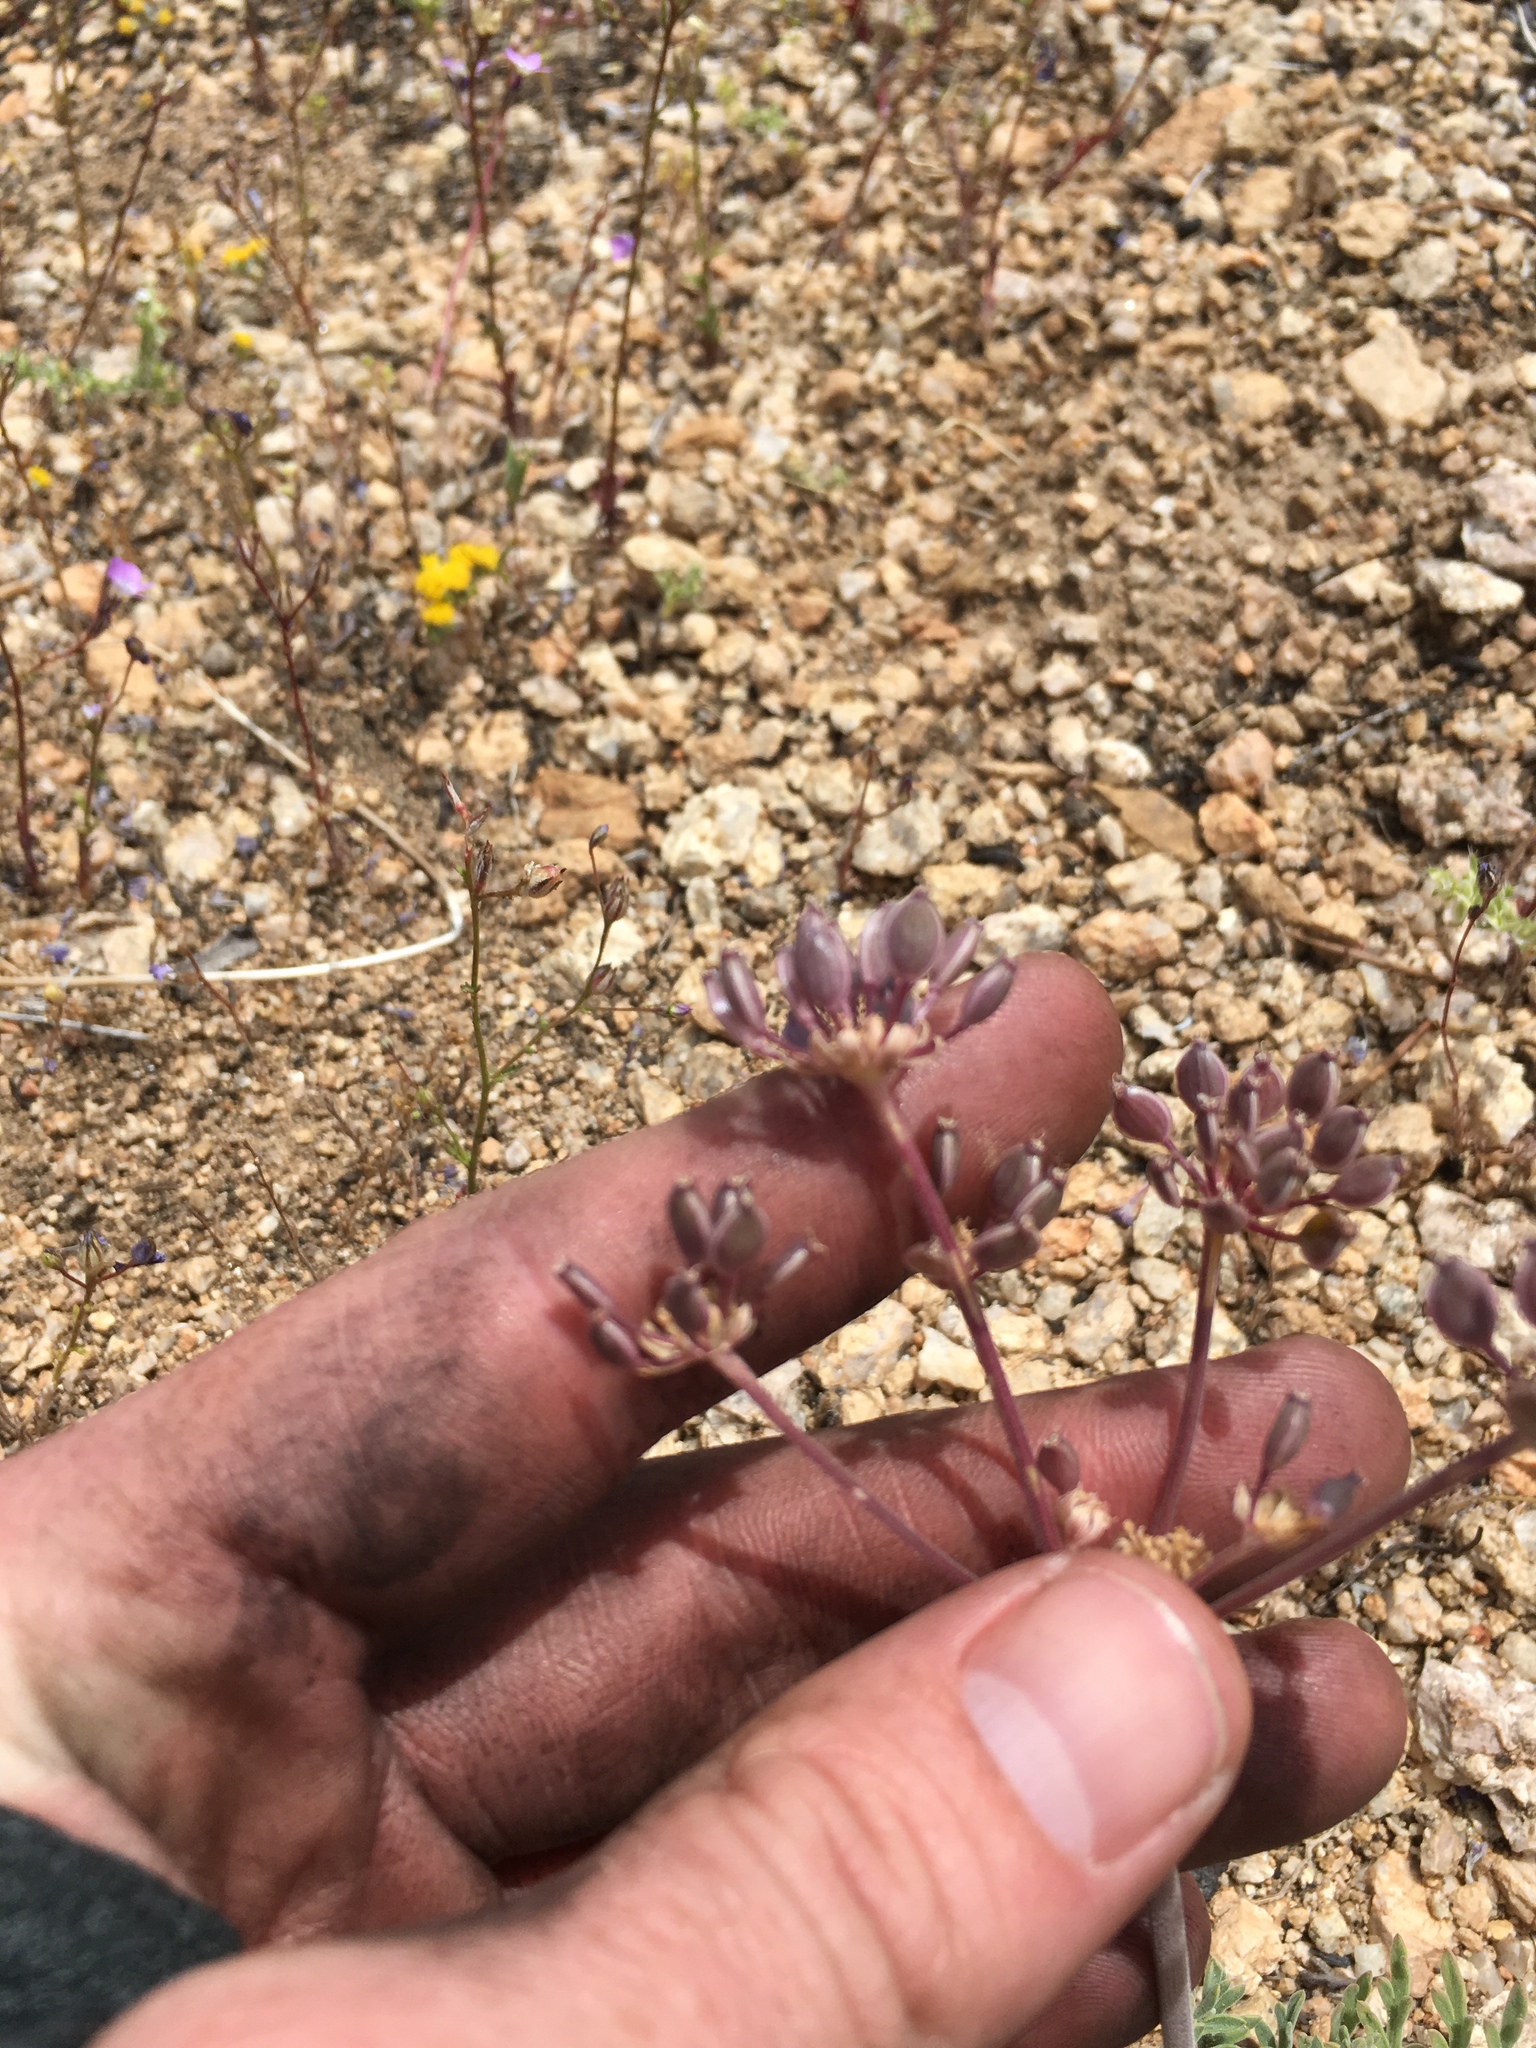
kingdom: Plantae
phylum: Tracheophyta
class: Magnoliopsida
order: Apiales
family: Apiaceae
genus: Lomatium
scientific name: Lomatium nevadense
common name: Nevada lomatium
